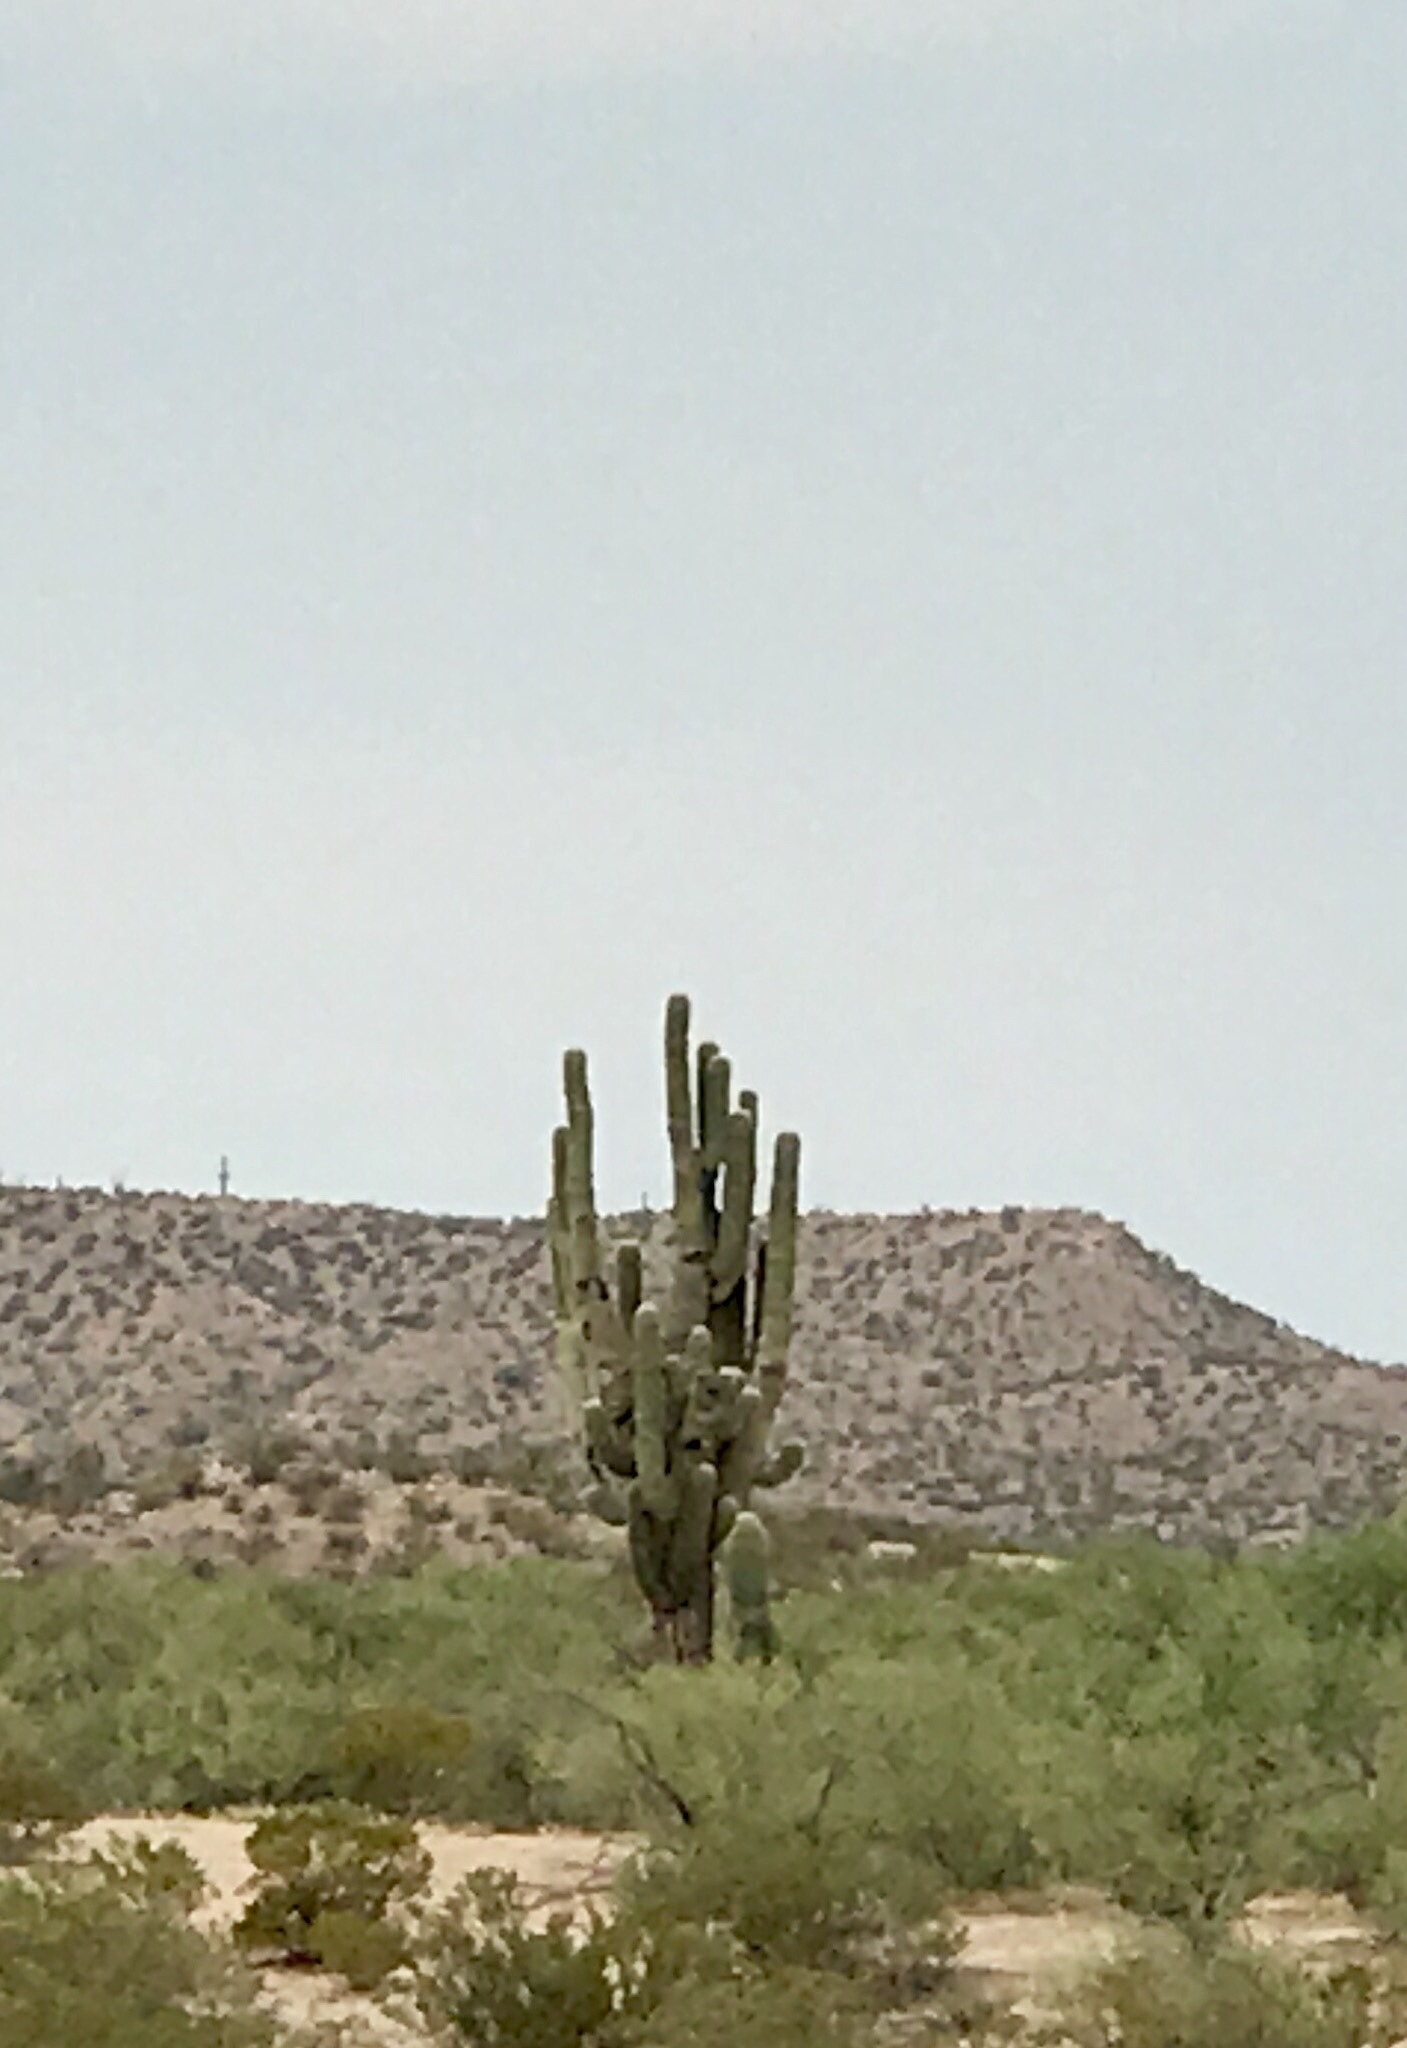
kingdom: Plantae
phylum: Tracheophyta
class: Magnoliopsida
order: Caryophyllales
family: Cactaceae
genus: Carnegiea
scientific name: Carnegiea gigantea
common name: Saguaro
